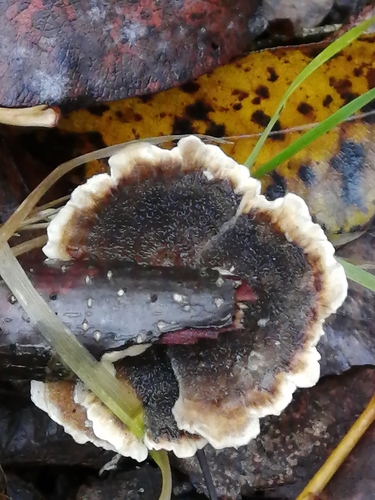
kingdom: Fungi
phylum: Basidiomycota
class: Agaricomycetes
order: Polyporales
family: Polyporaceae
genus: Trametes
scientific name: Trametes versicolor
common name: Turkeytail
